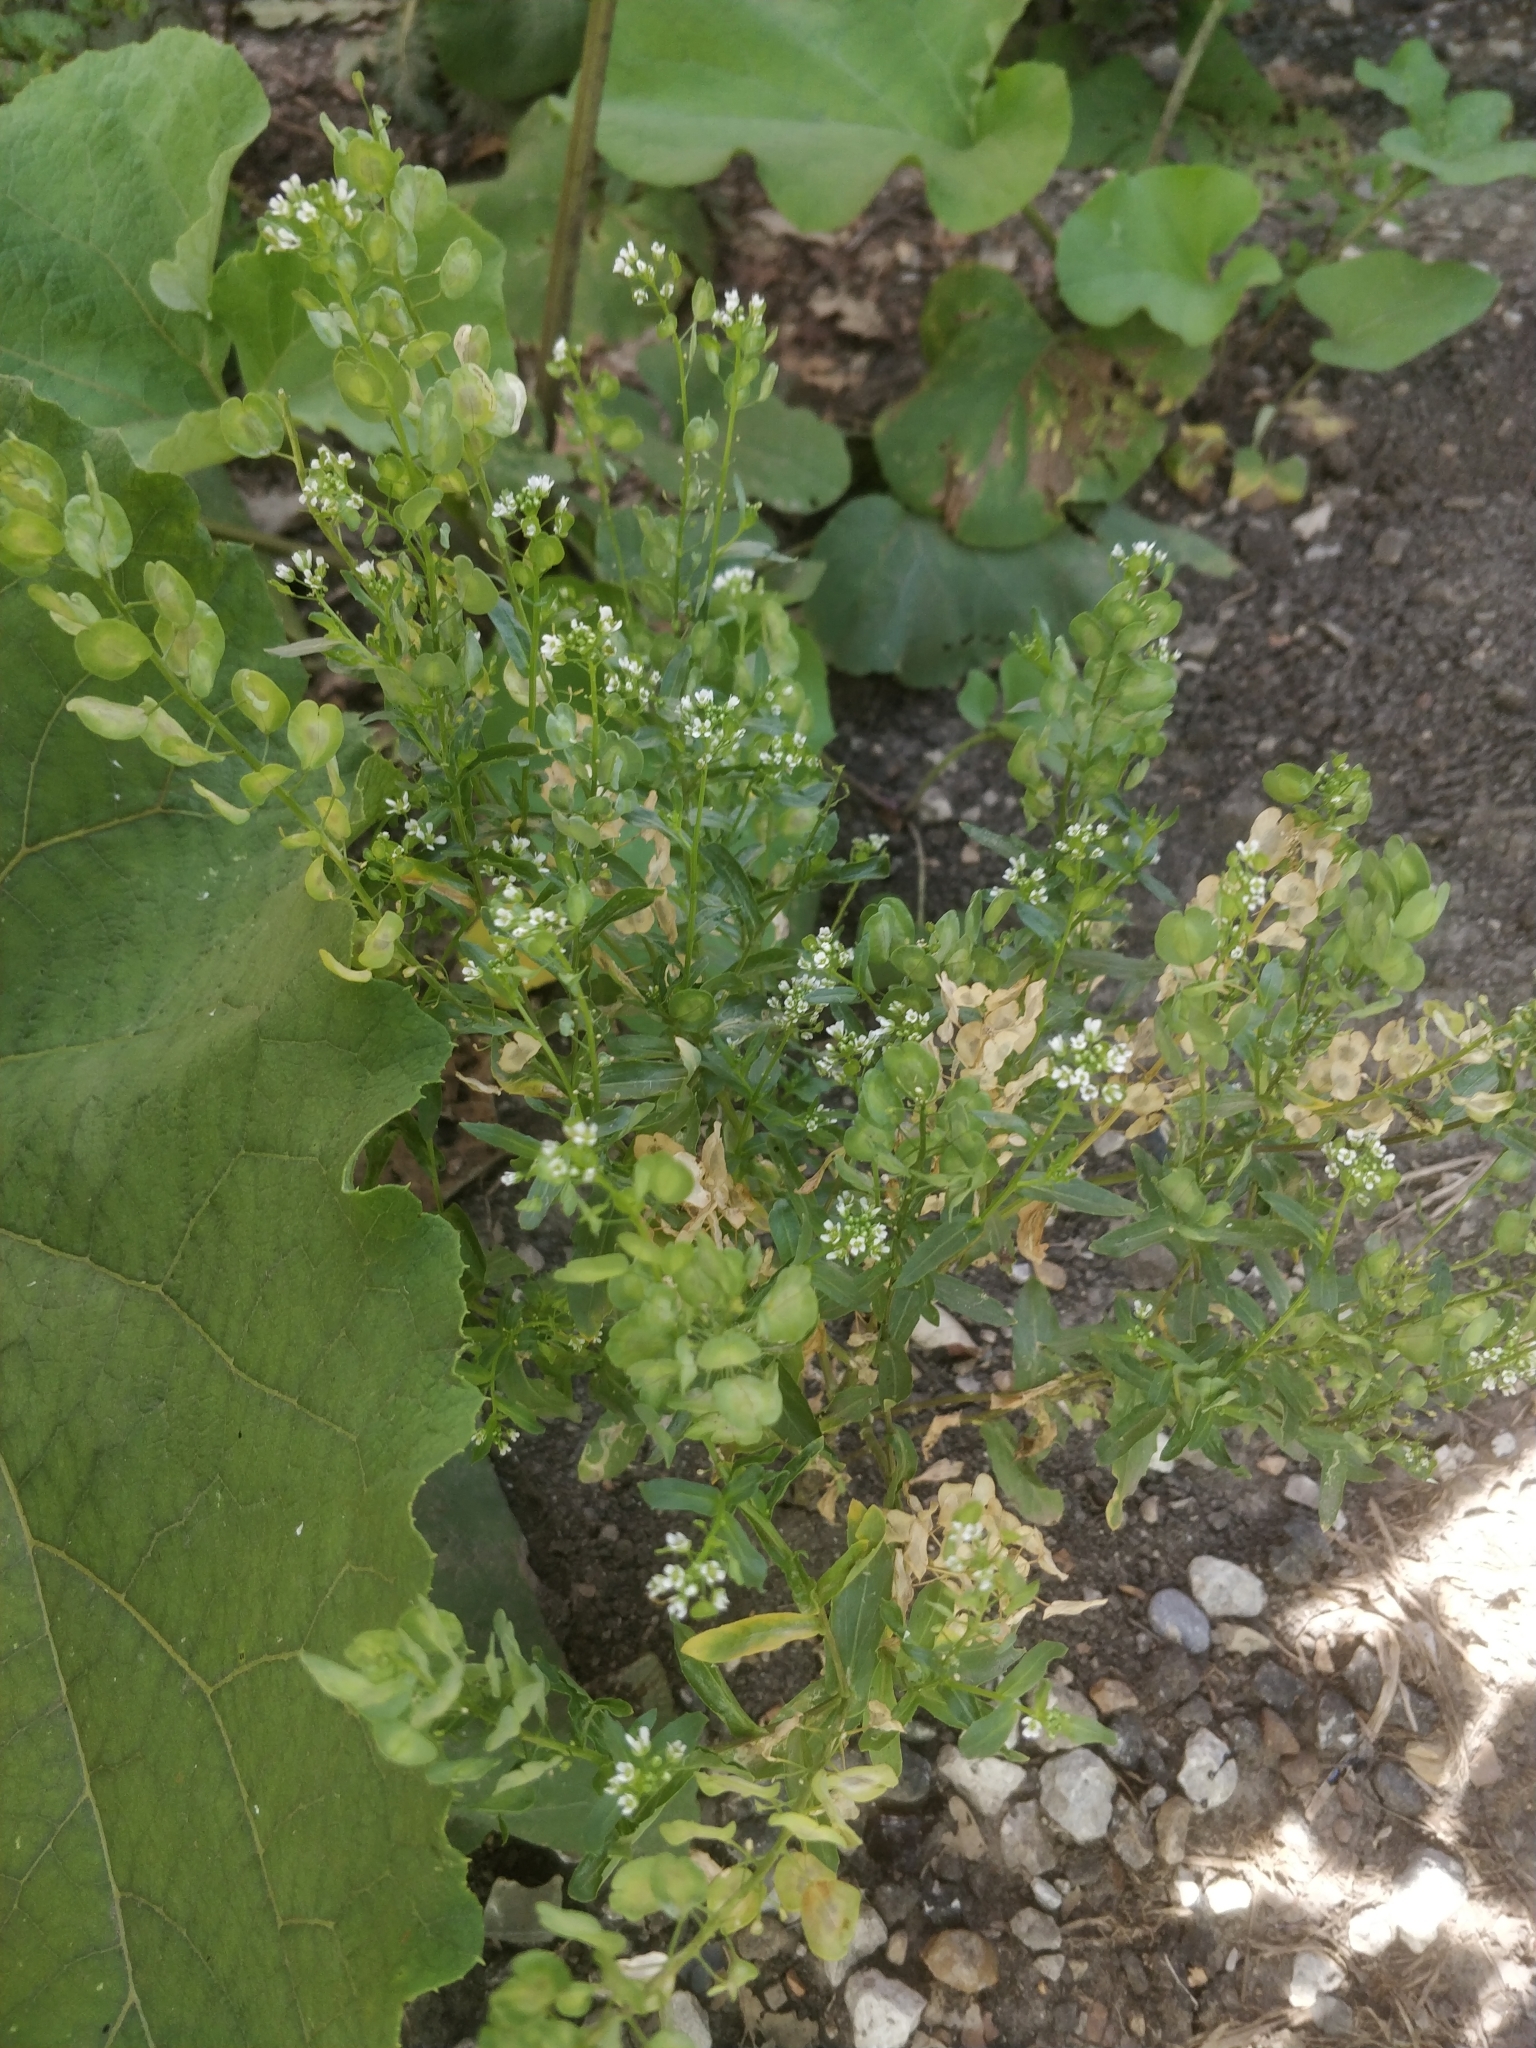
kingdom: Plantae
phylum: Tracheophyta
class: Magnoliopsida
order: Brassicales
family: Brassicaceae
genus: Thlaspi
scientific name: Thlaspi arvense
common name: Field pennycress
